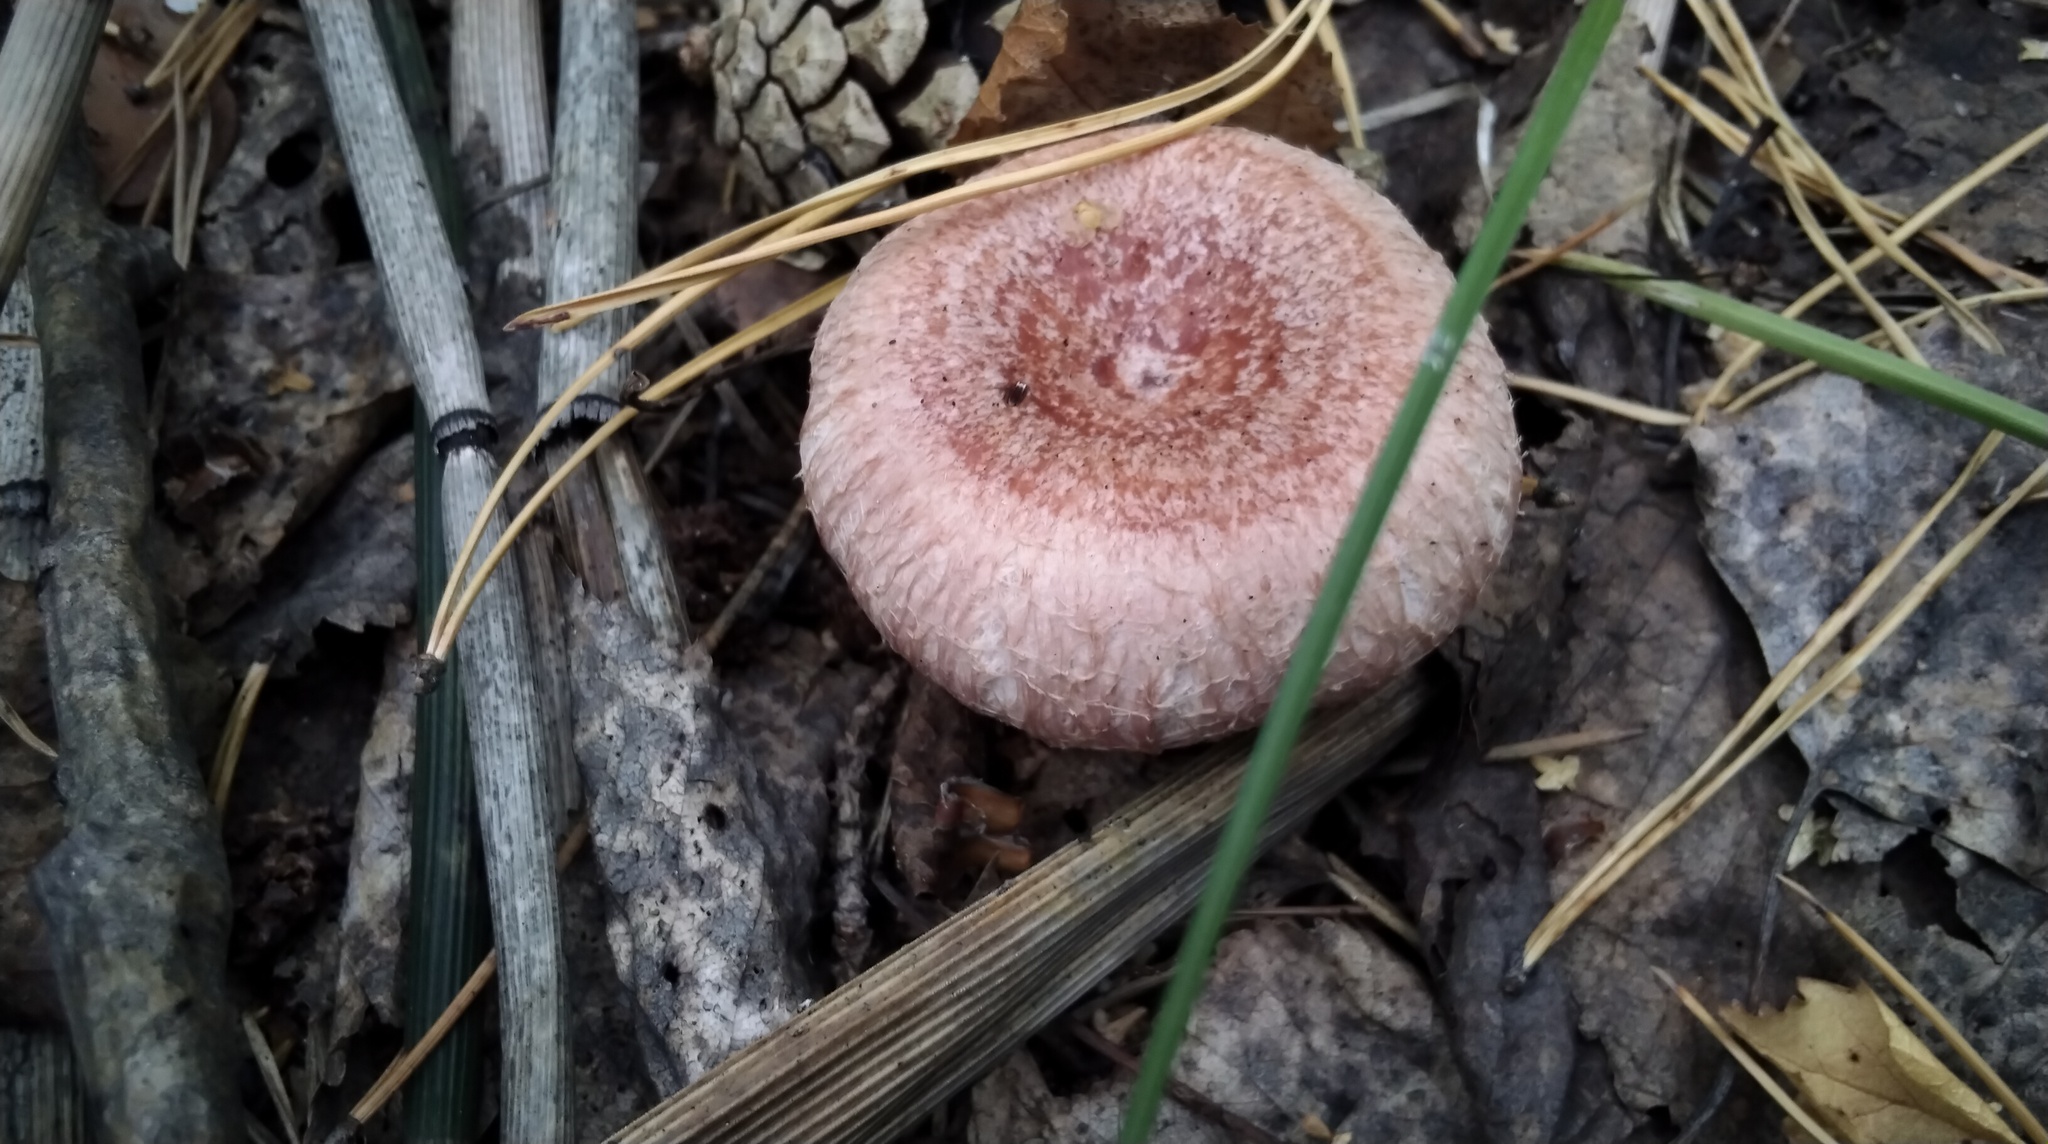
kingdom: Fungi
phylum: Basidiomycota
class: Agaricomycetes
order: Russulales
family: Russulaceae
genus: Lactarius
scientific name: Lactarius torminosus
